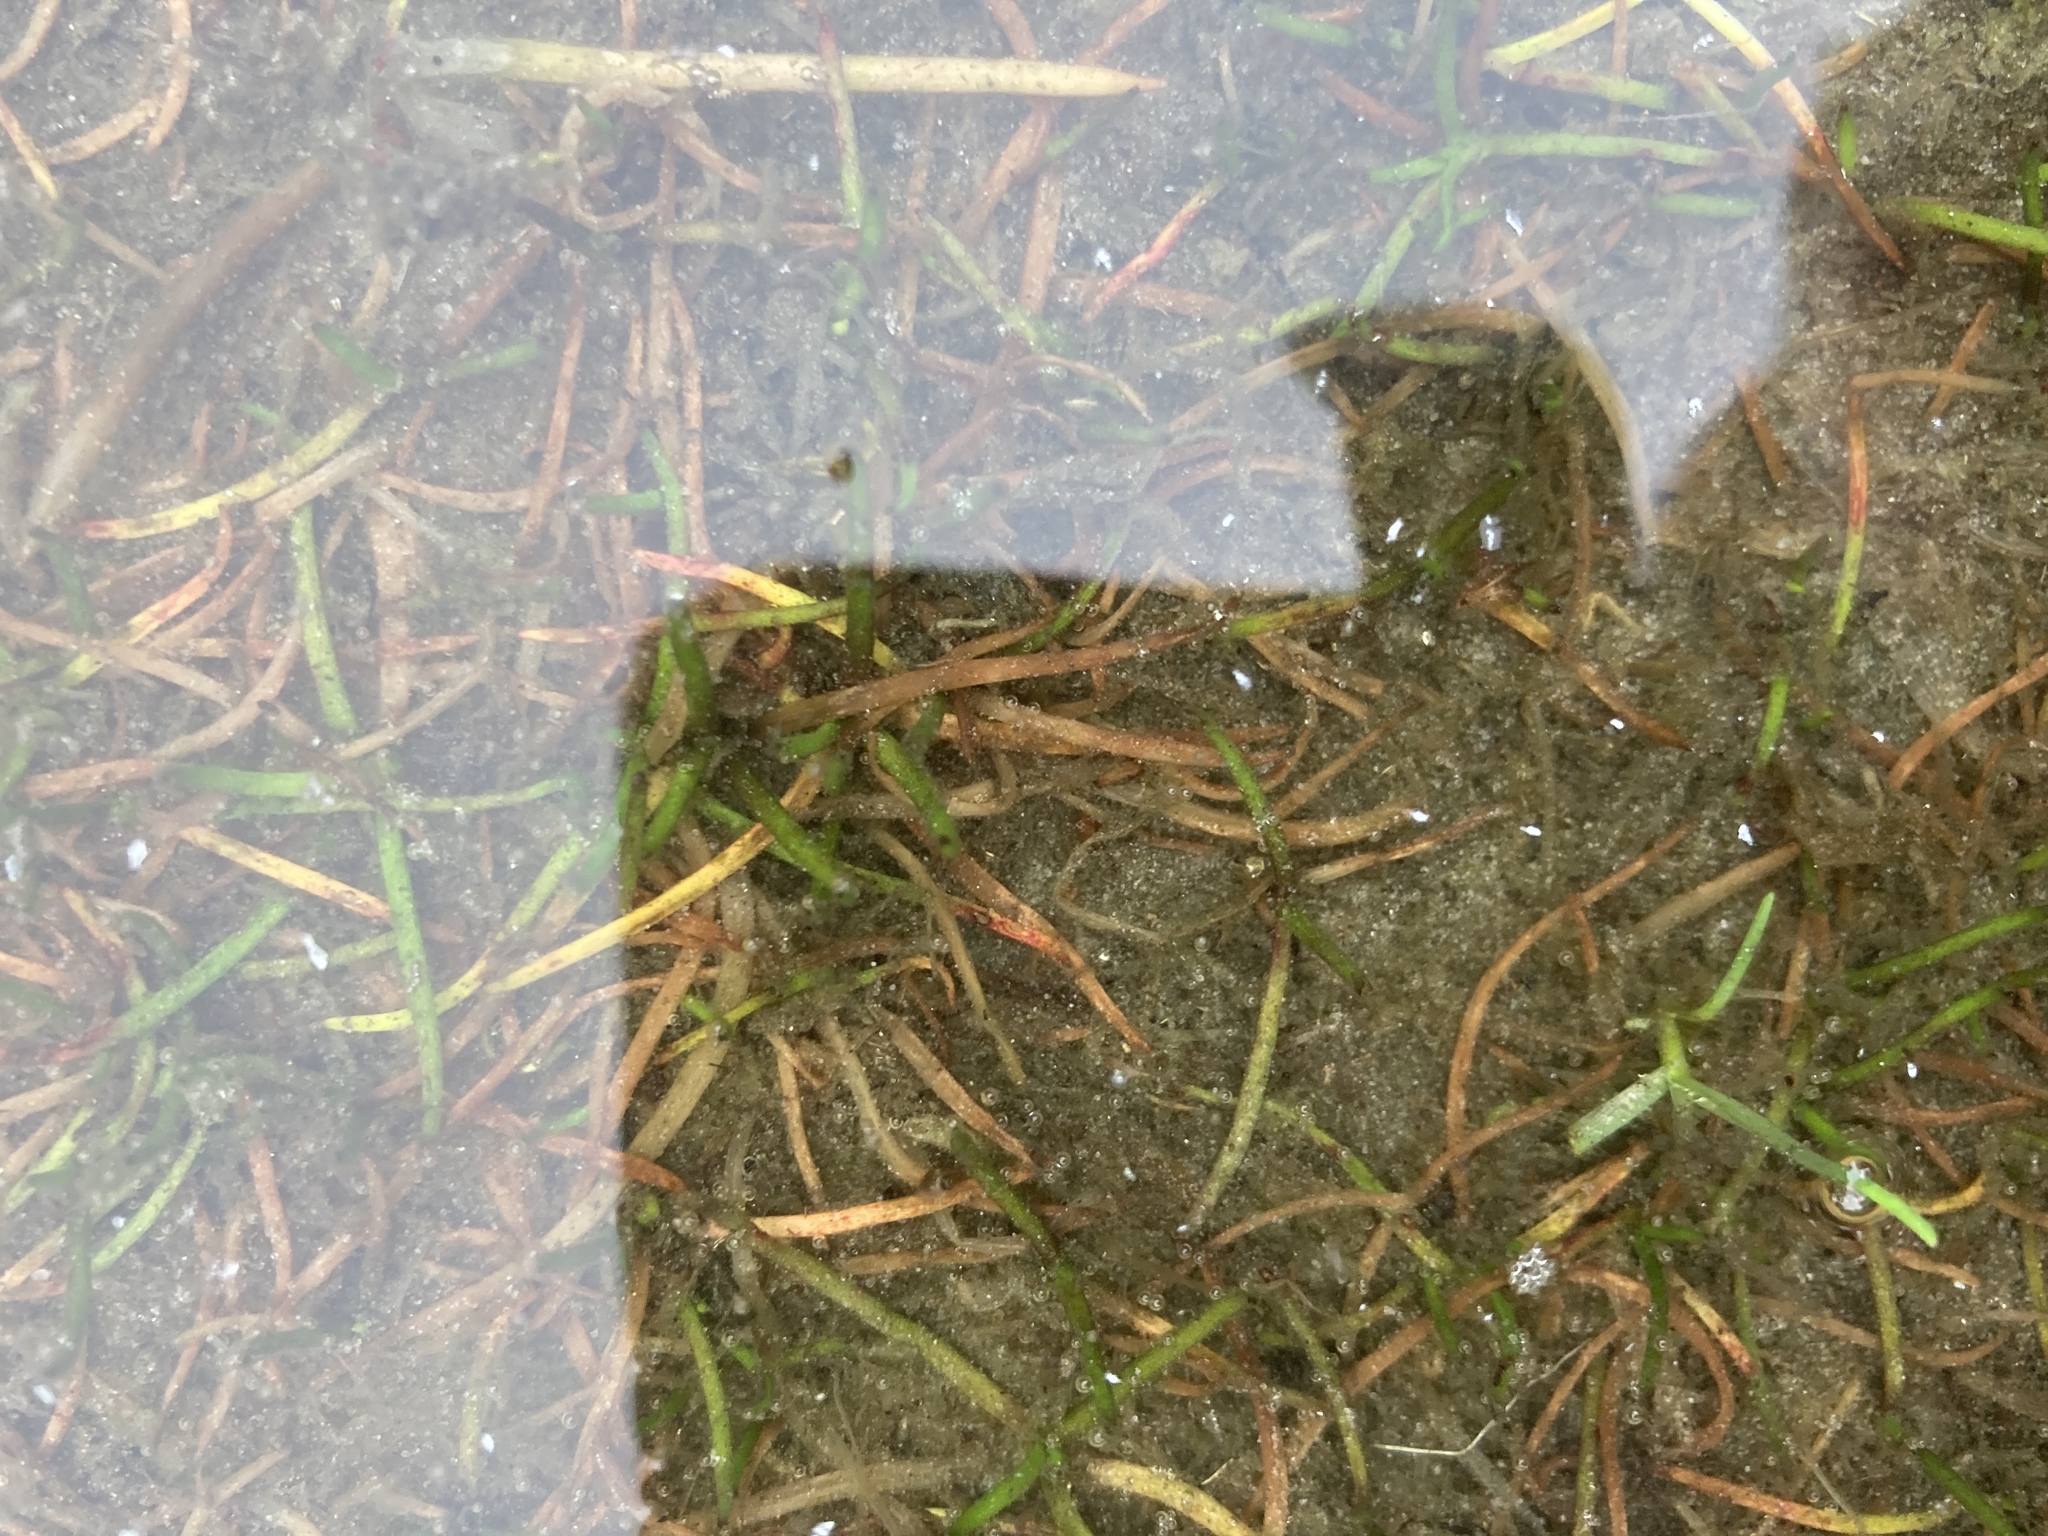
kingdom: Plantae
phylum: Tracheophyta
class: Magnoliopsida
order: Lamiales
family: Plantaginaceae
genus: Littorella
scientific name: Littorella uniflora
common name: Shoreweed
